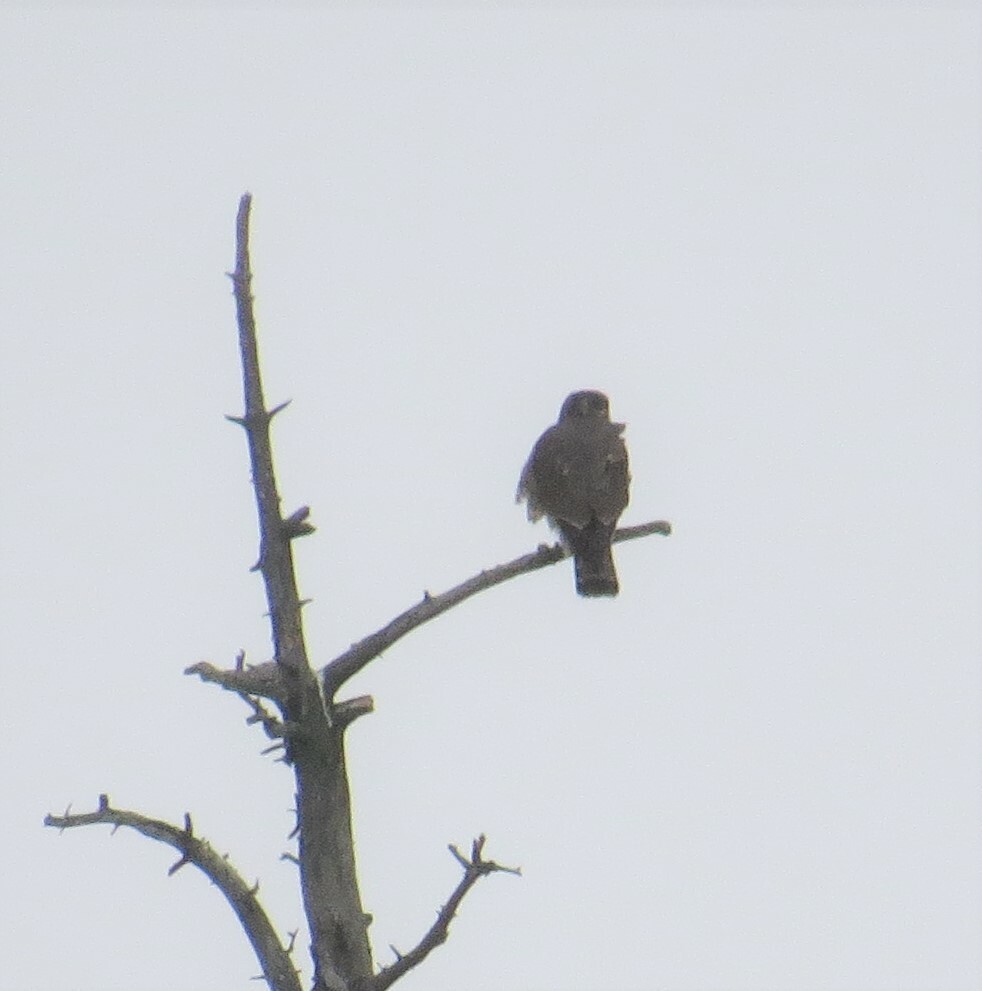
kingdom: Animalia
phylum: Chordata
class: Aves
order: Falconiformes
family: Falconidae
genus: Falco
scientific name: Falco columbarius
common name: Merlin
